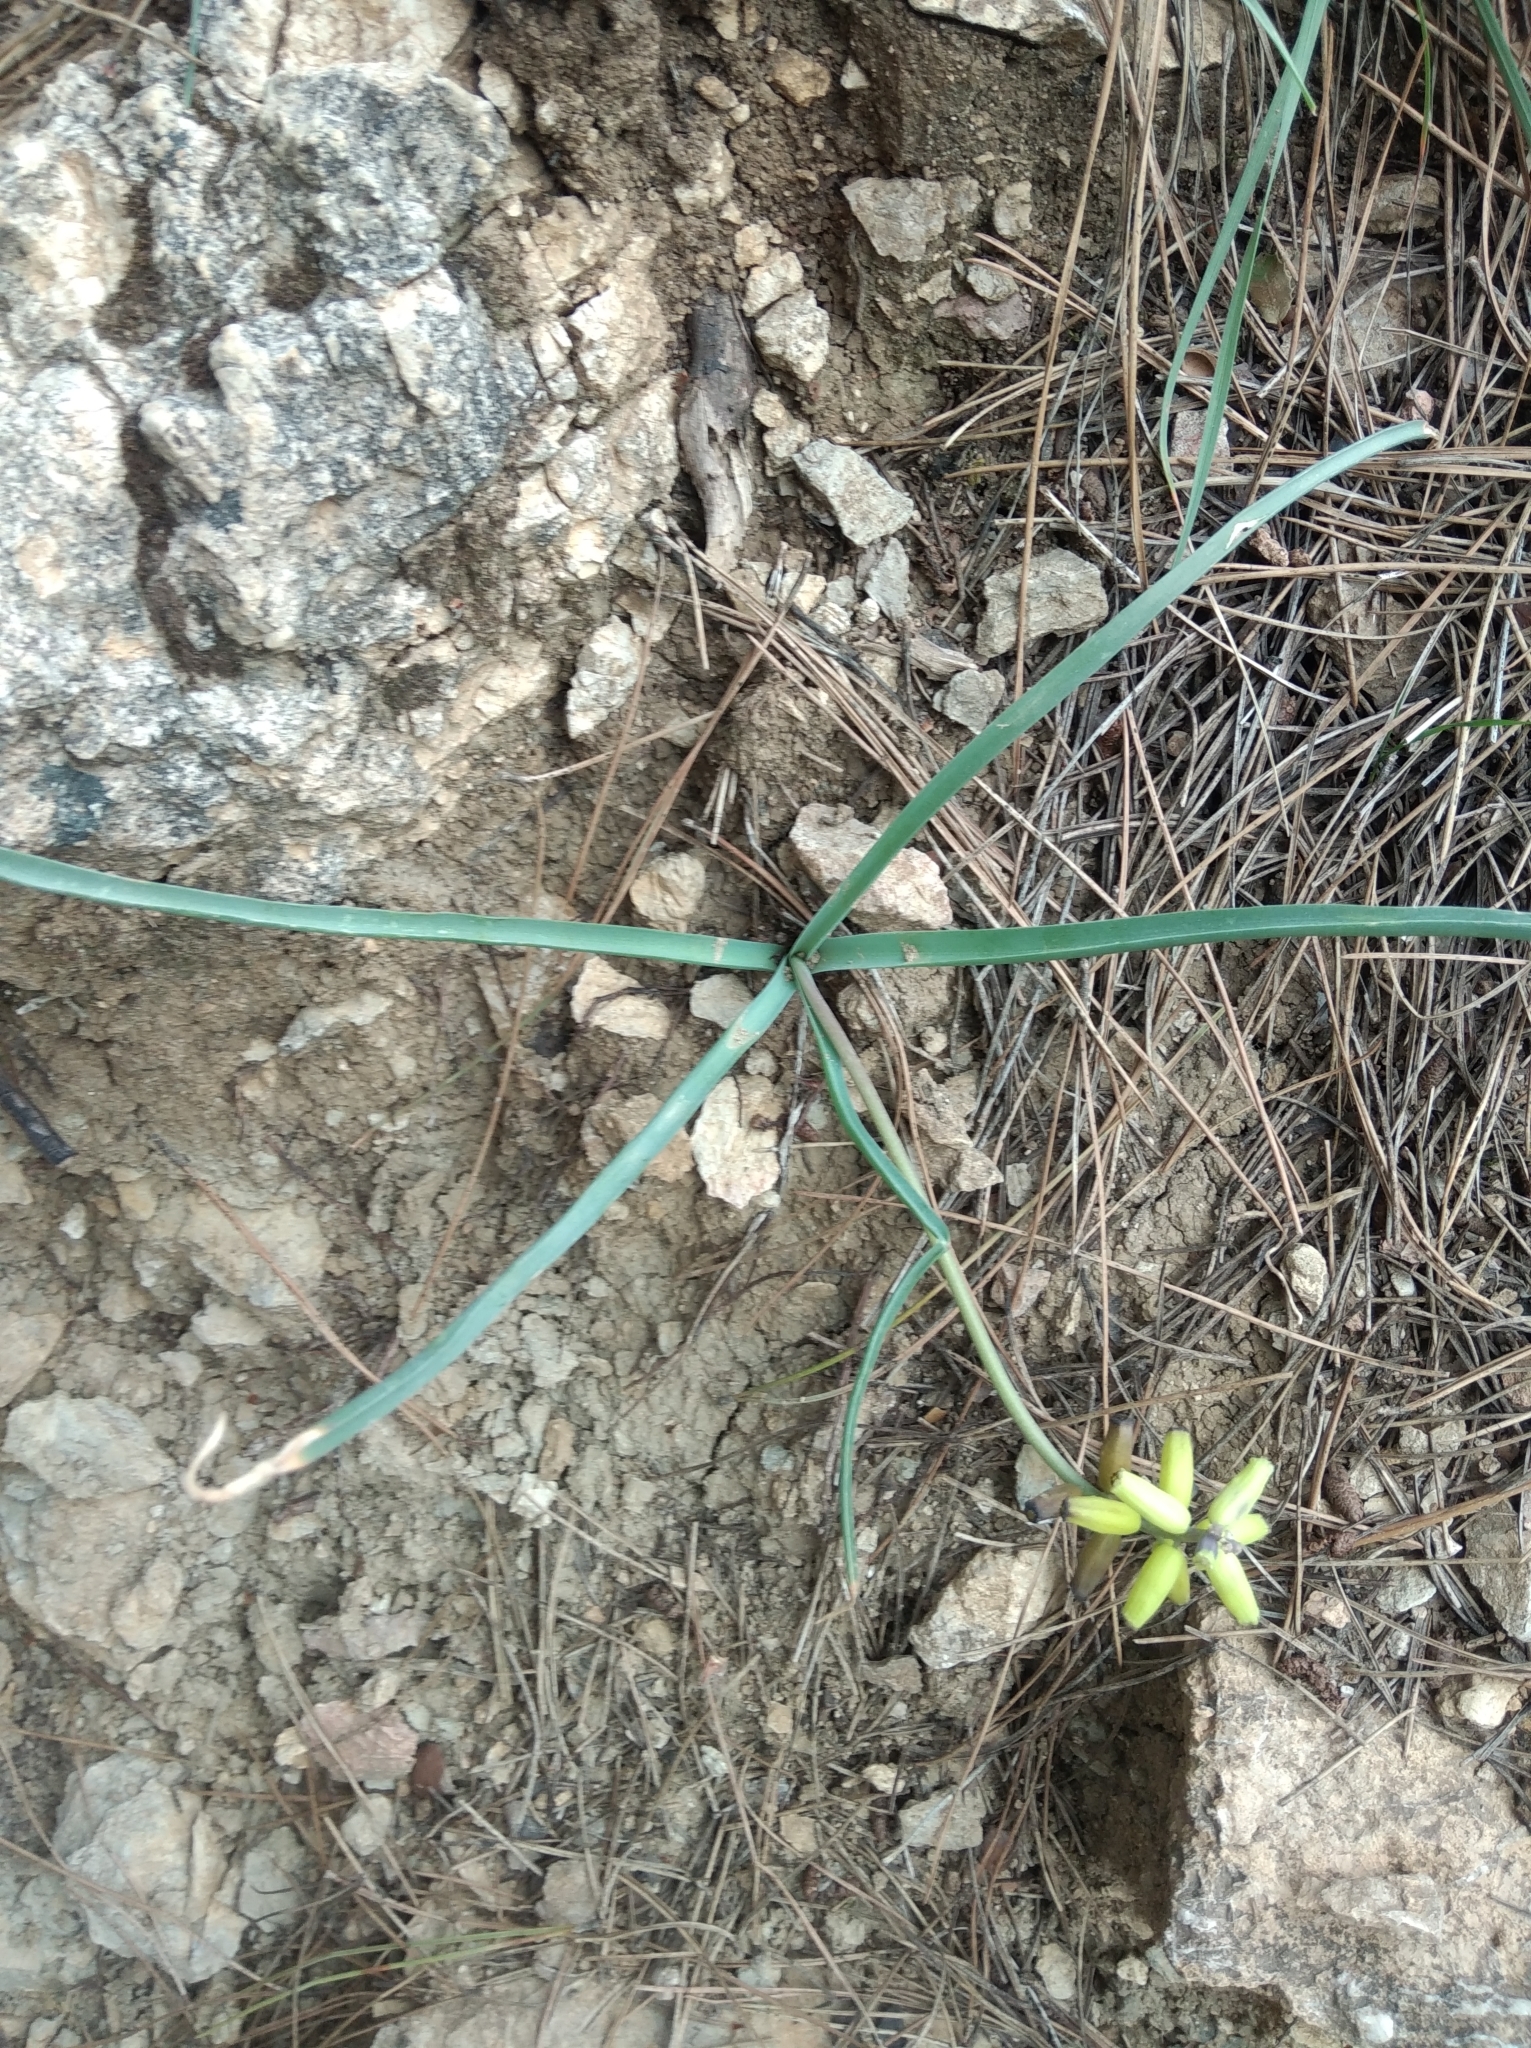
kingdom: Plantae
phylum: Tracheophyta
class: Liliopsida
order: Asparagales
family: Asparagaceae
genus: Muscarimia
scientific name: Muscarimia macrocarpa
